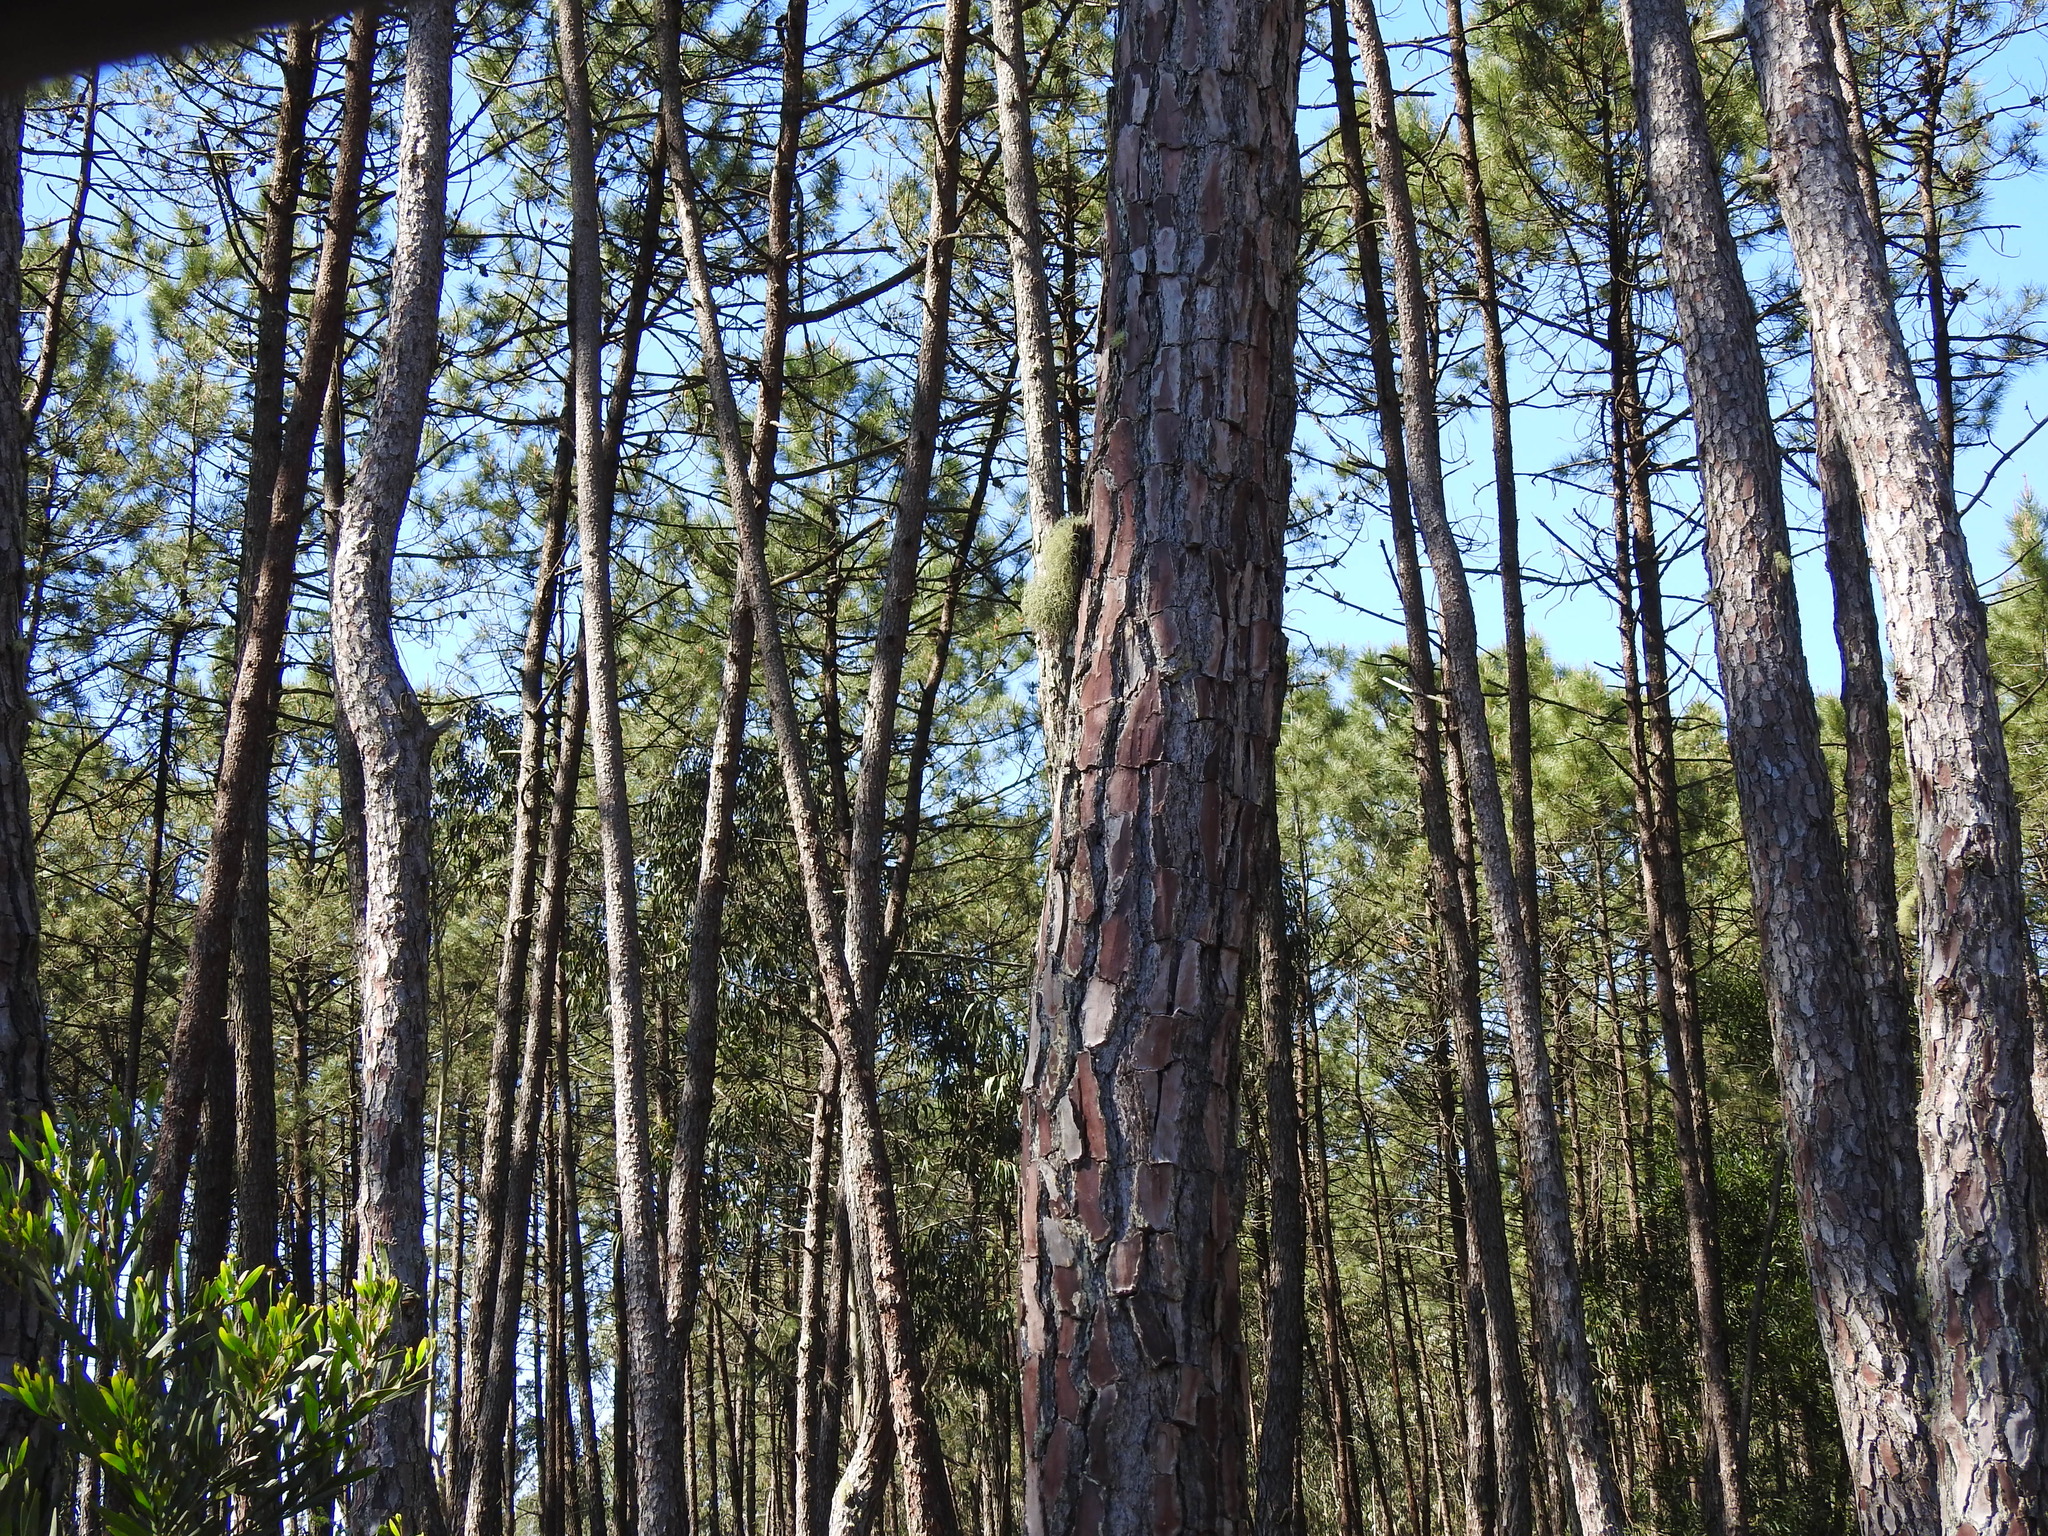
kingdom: Plantae
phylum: Tracheophyta
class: Pinopsida
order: Pinales
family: Pinaceae
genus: Pinus
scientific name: Pinus pinaster
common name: Maritime pine
